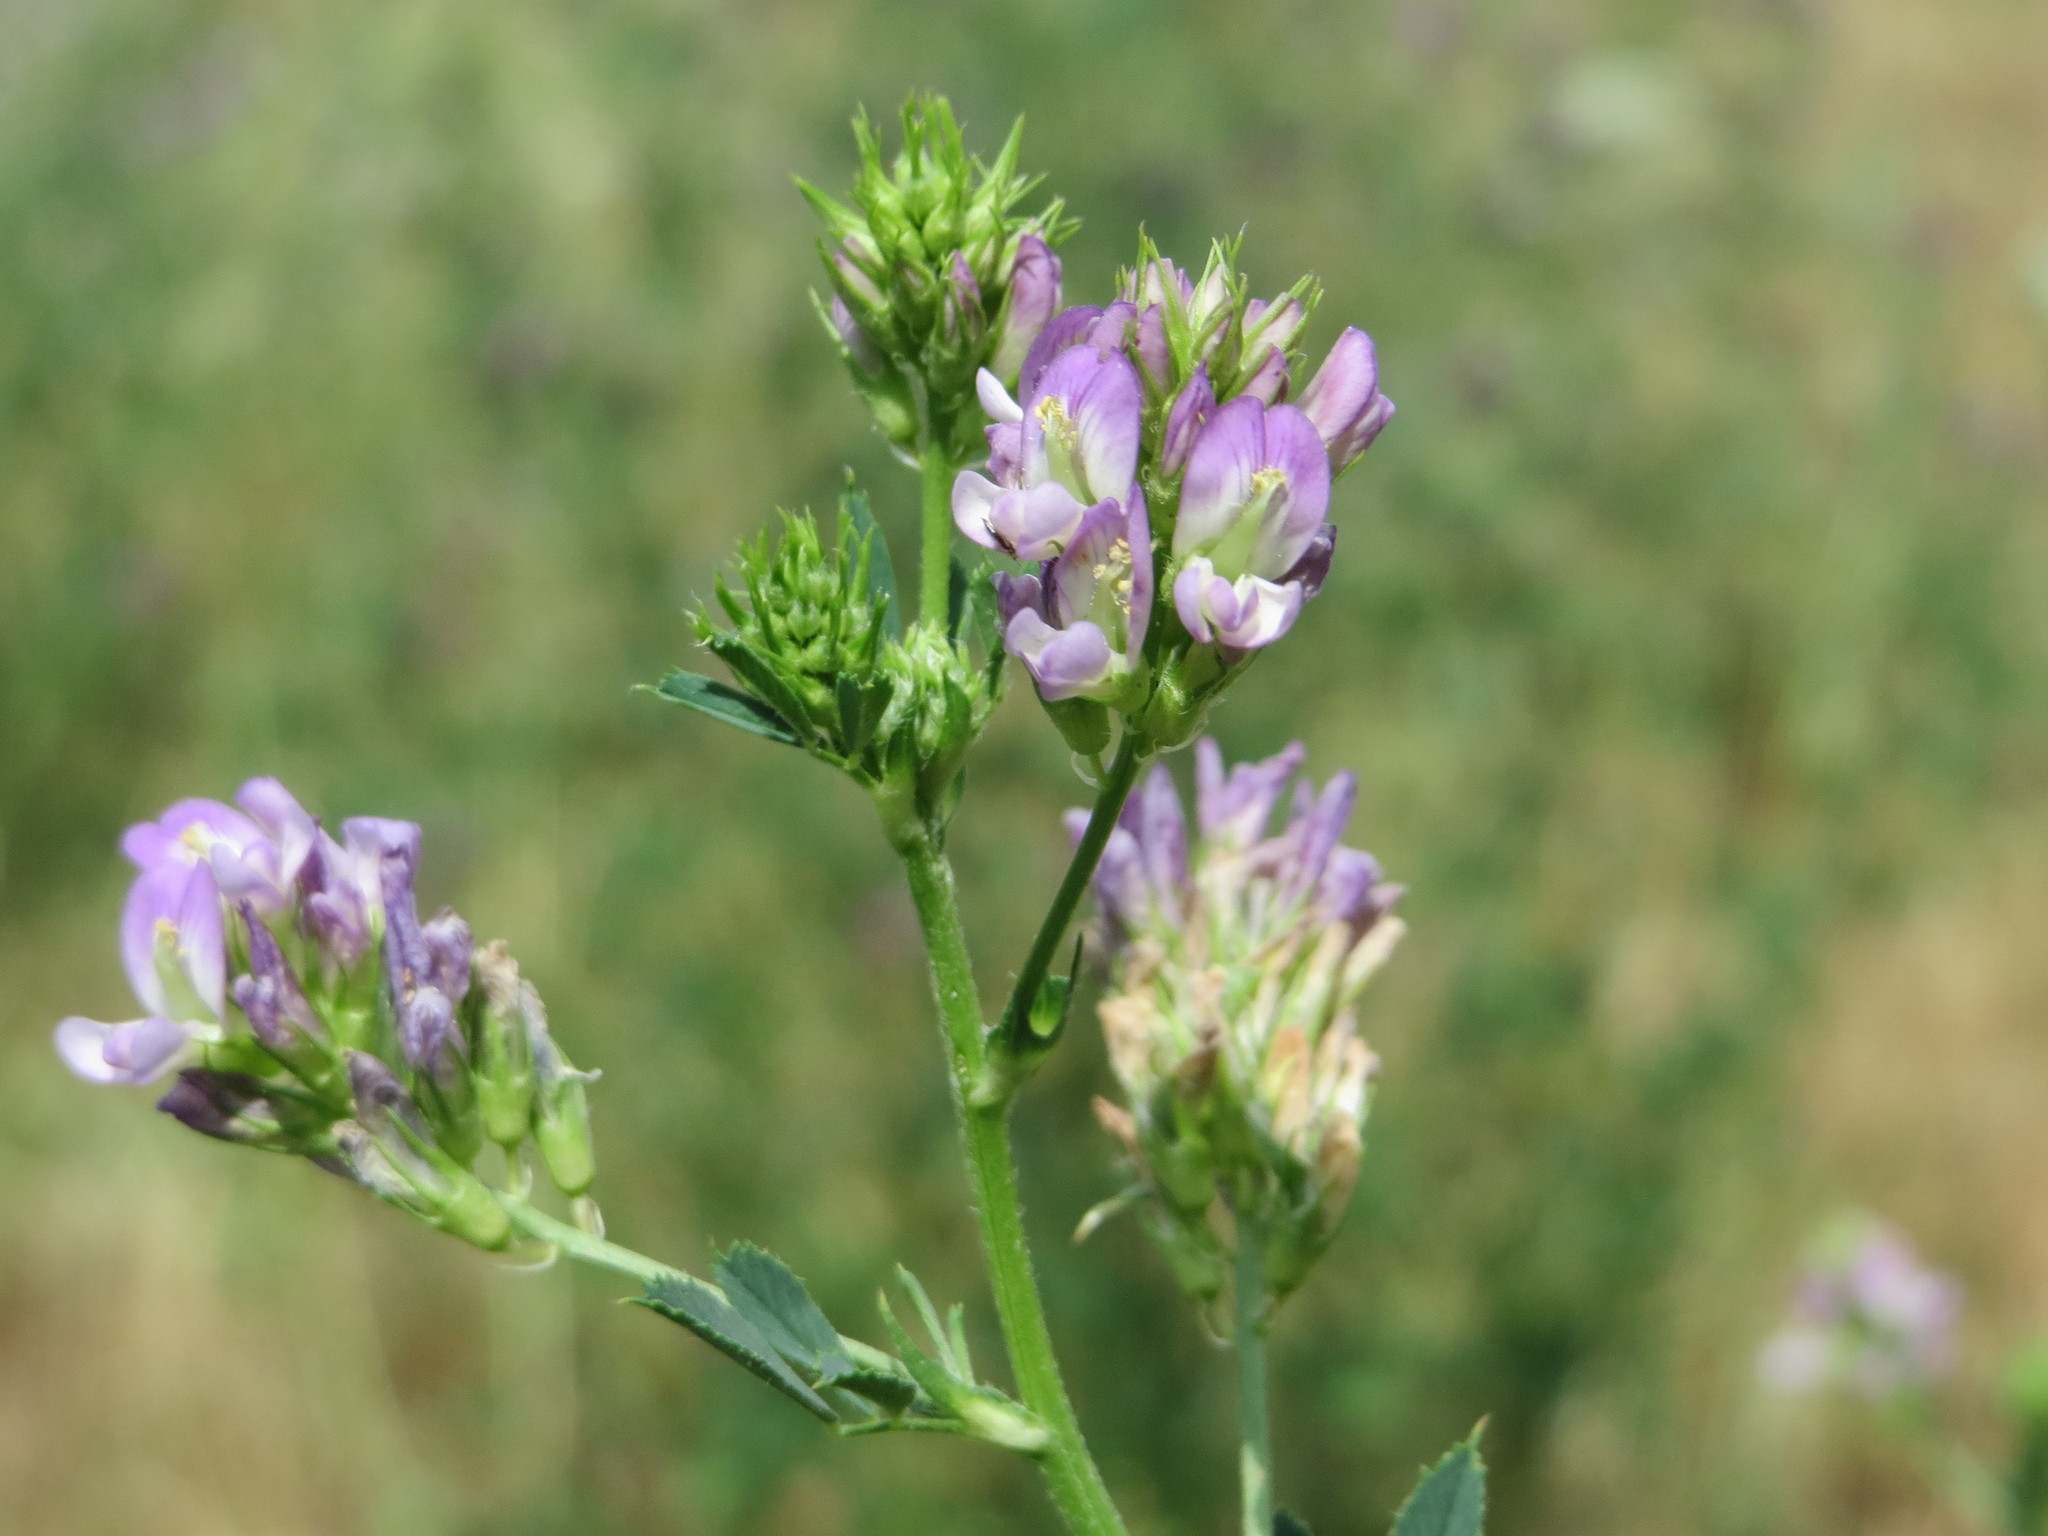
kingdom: Plantae
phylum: Tracheophyta
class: Magnoliopsida
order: Fabales
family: Fabaceae
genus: Medicago
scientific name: Medicago sativa
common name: Alfalfa
